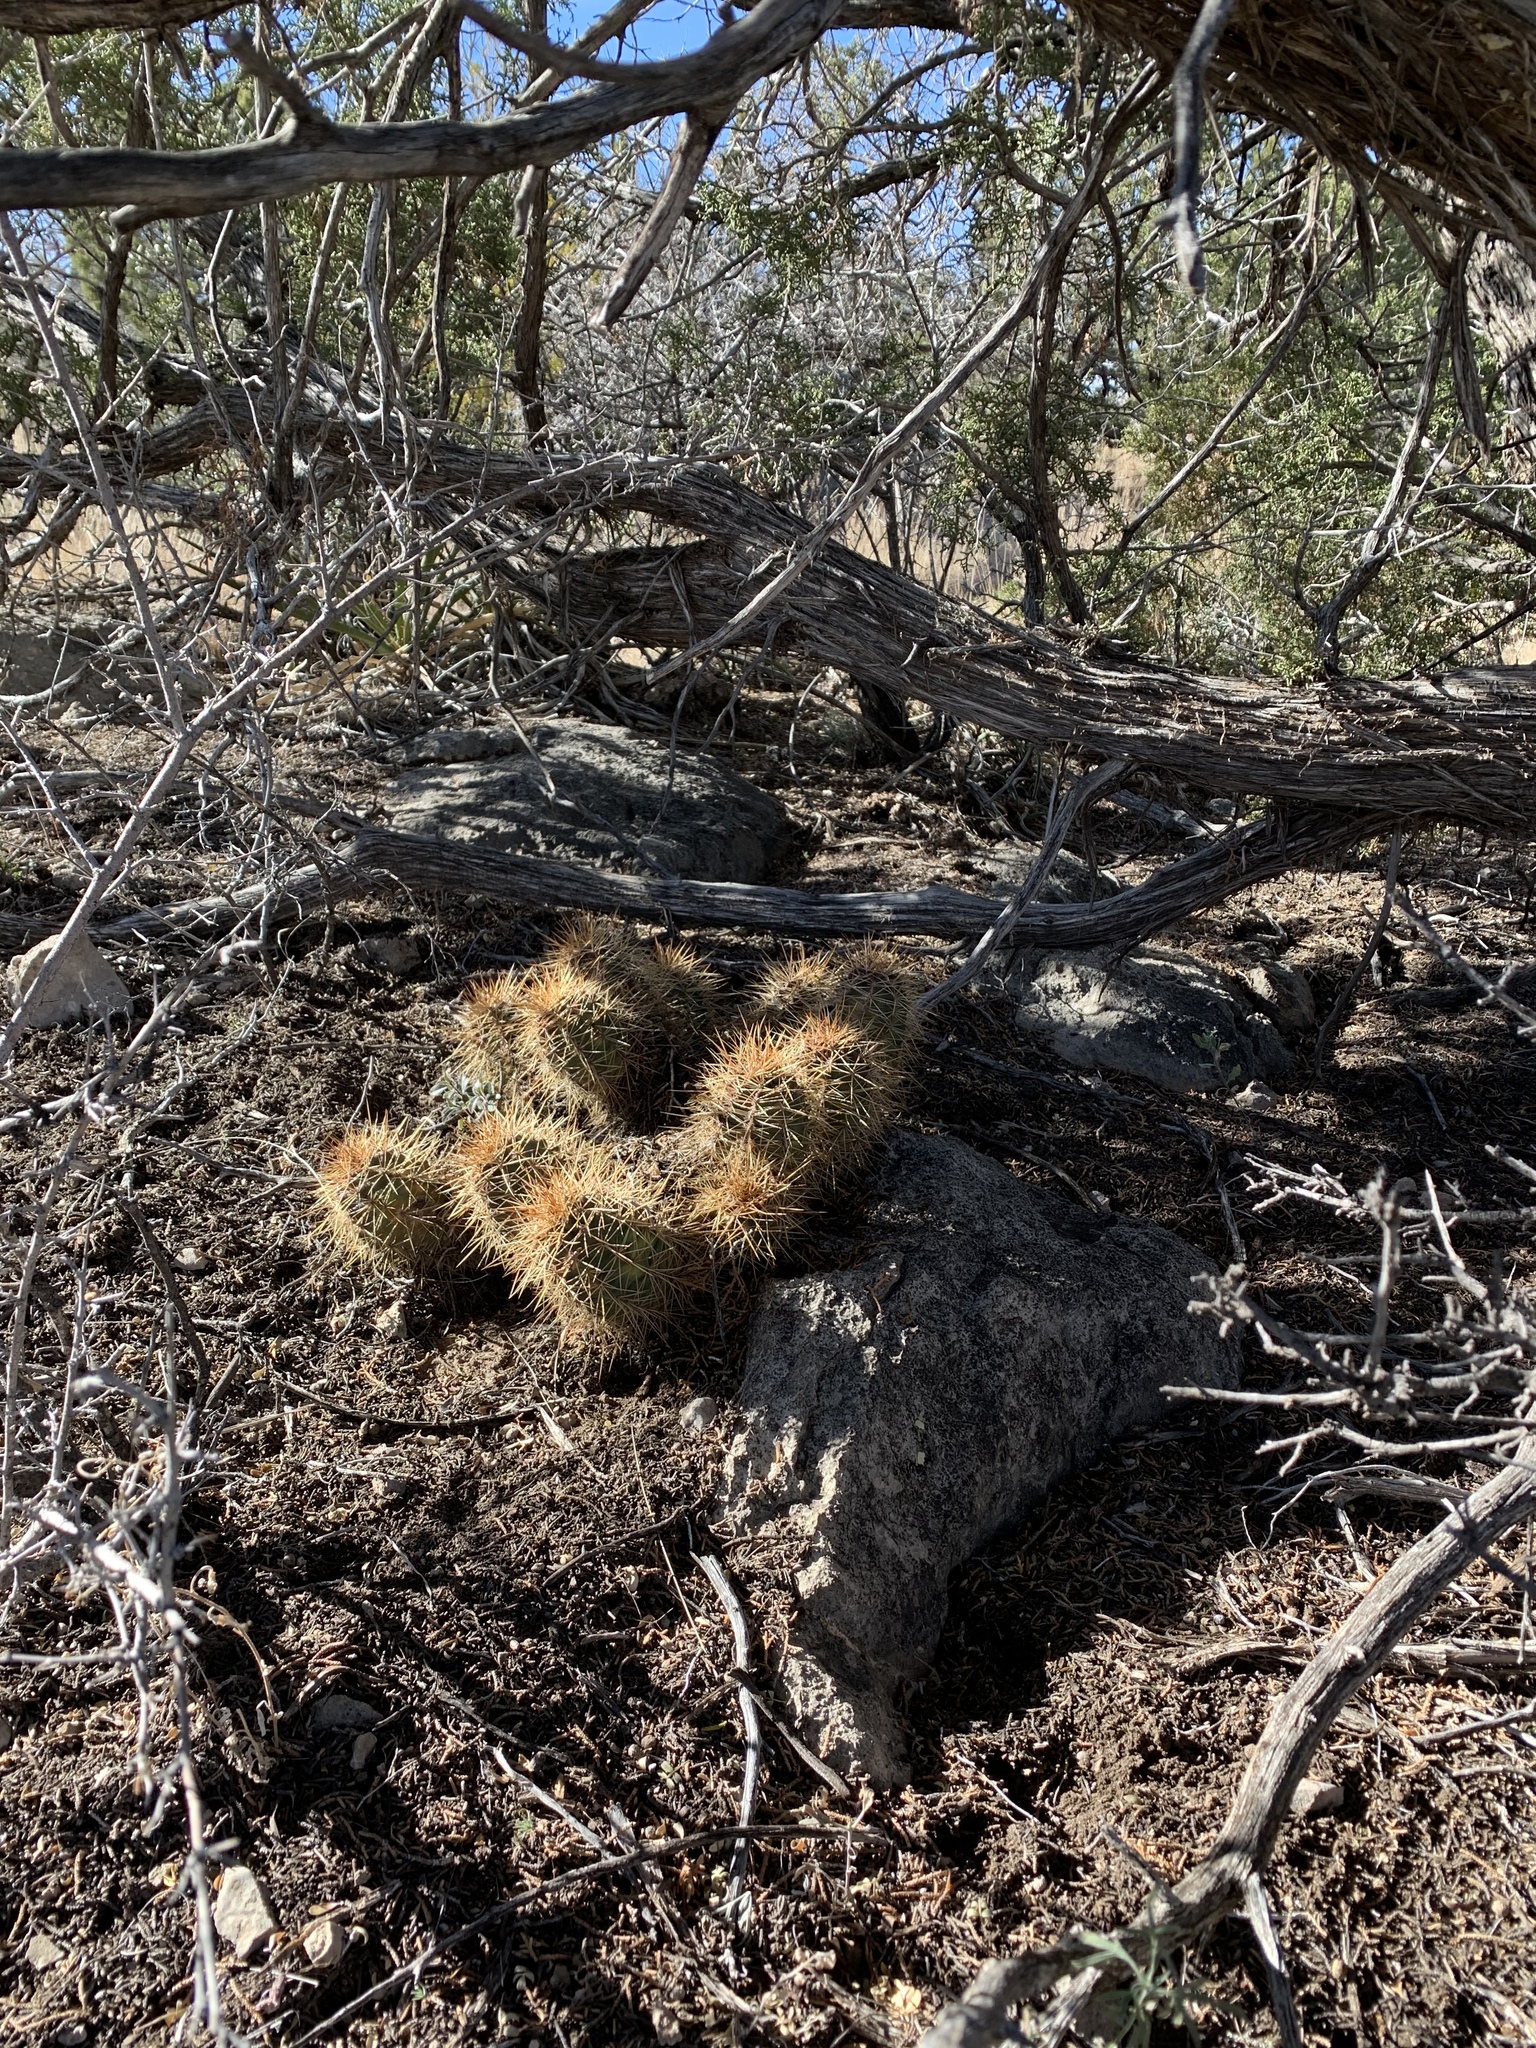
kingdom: Plantae
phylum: Tracheophyta
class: Magnoliopsida
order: Caryophyllales
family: Cactaceae
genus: Echinocereus
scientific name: Echinocereus coccineus
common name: Scarlet hedgehog cactus
